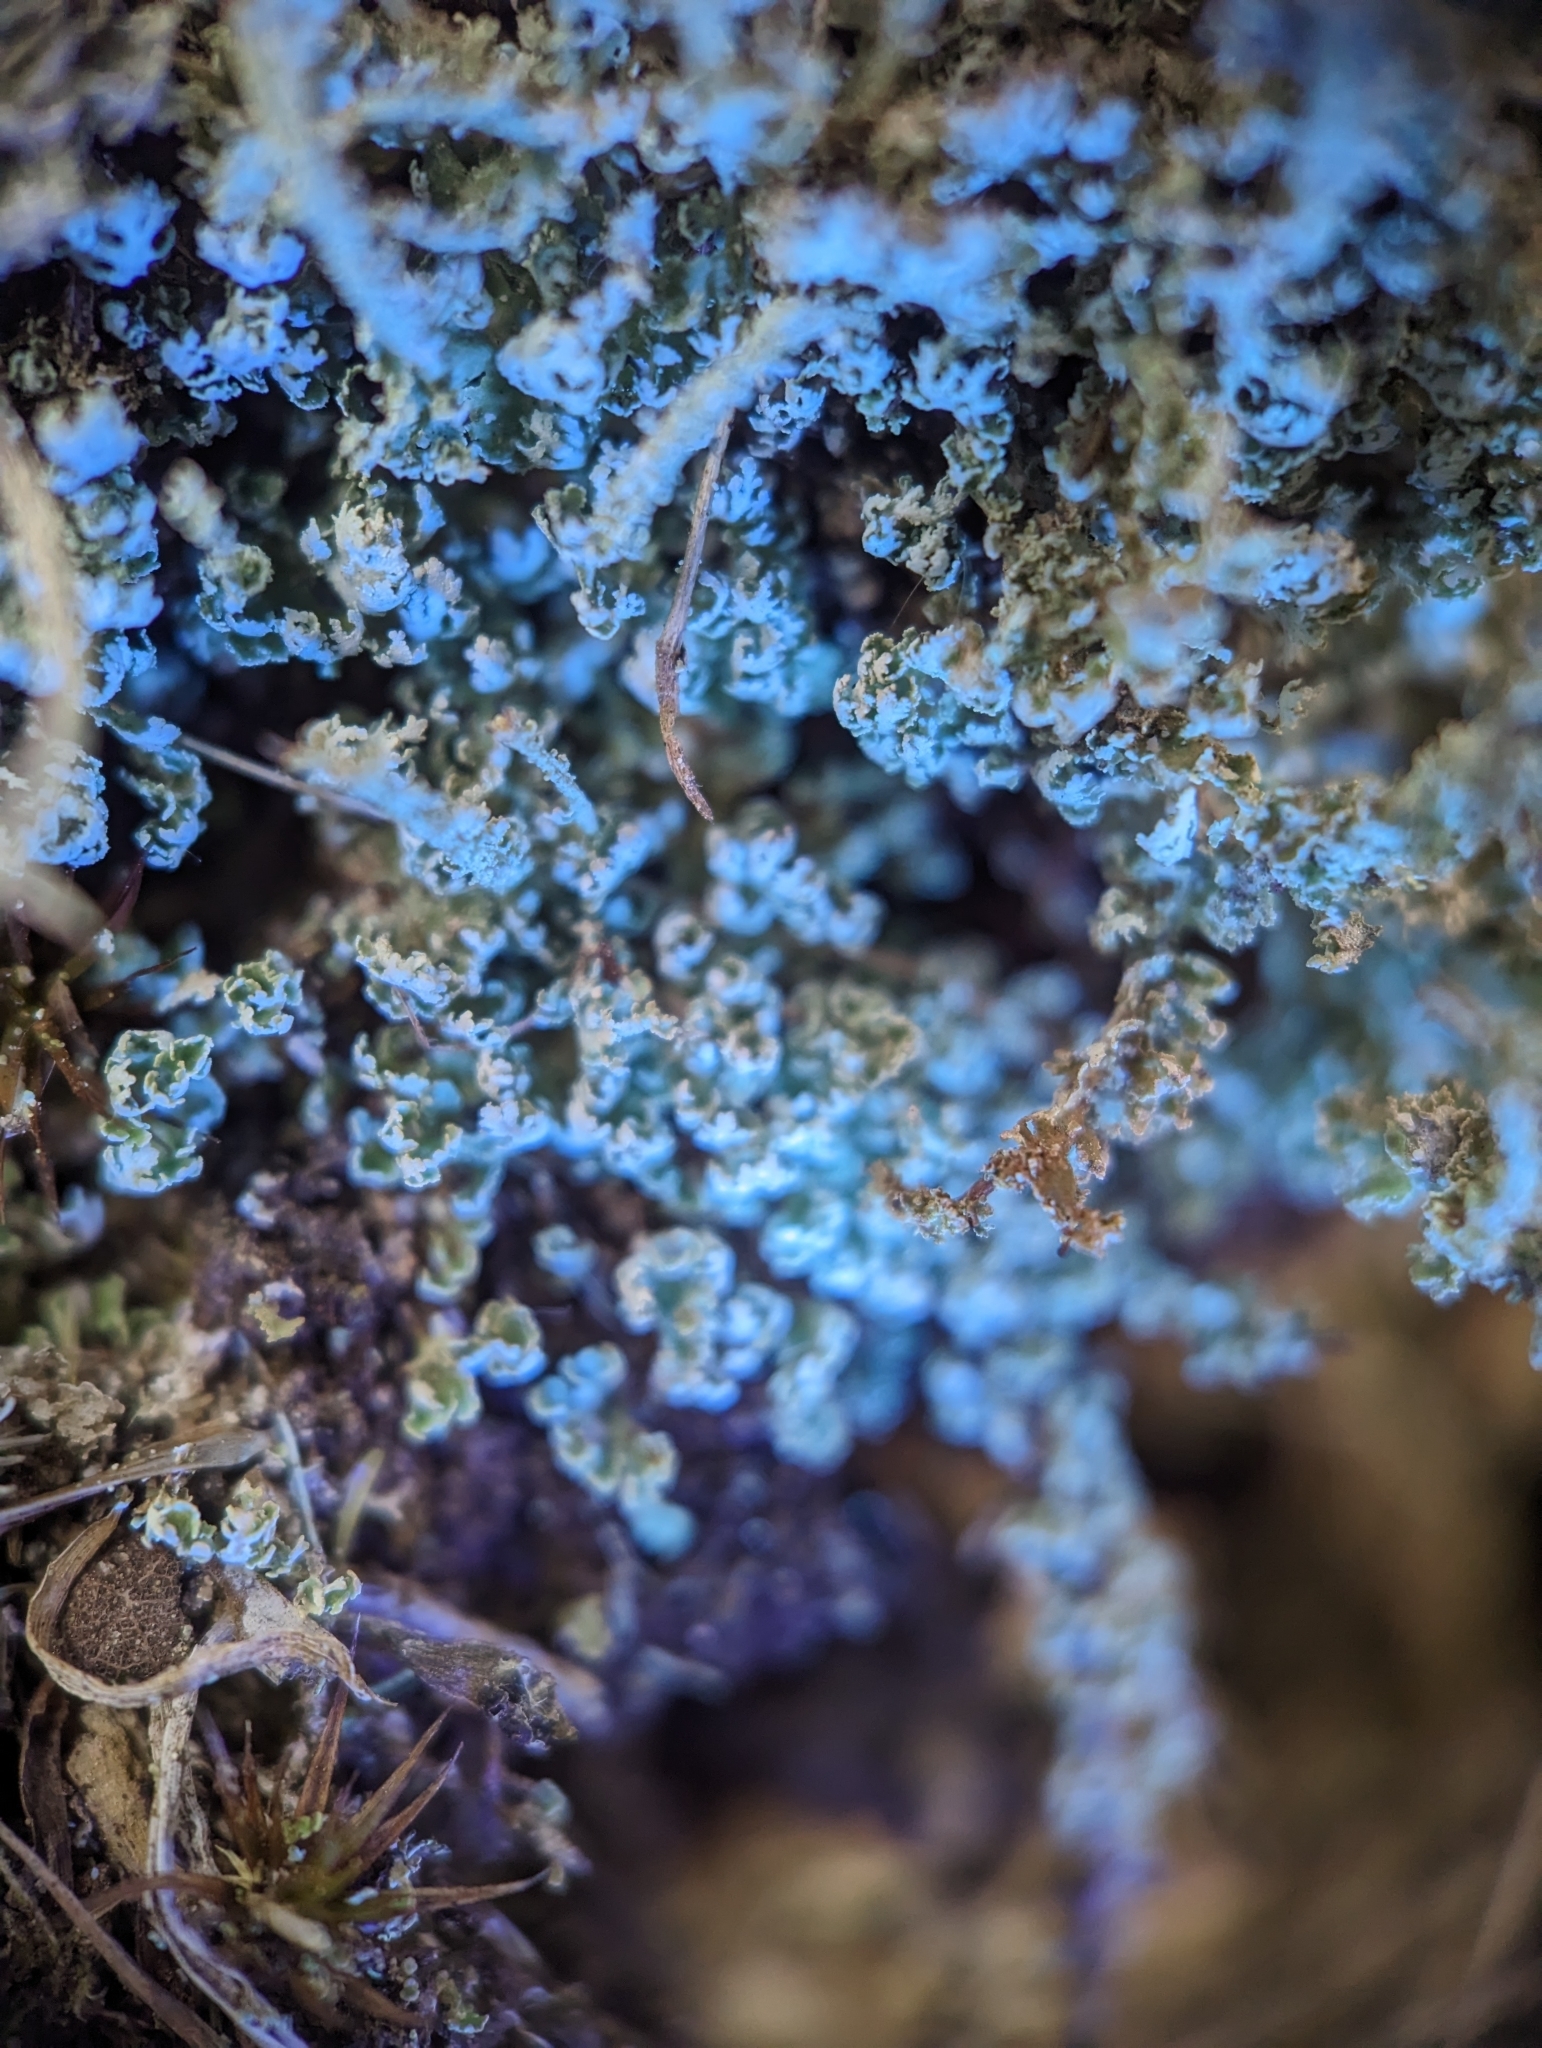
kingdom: Fungi
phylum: Ascomycota
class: Lecanoromycetes
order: Lecanorales
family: Cladoniaceae
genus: Cladonia
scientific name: Cladonia squamosa
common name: Dragon horn
